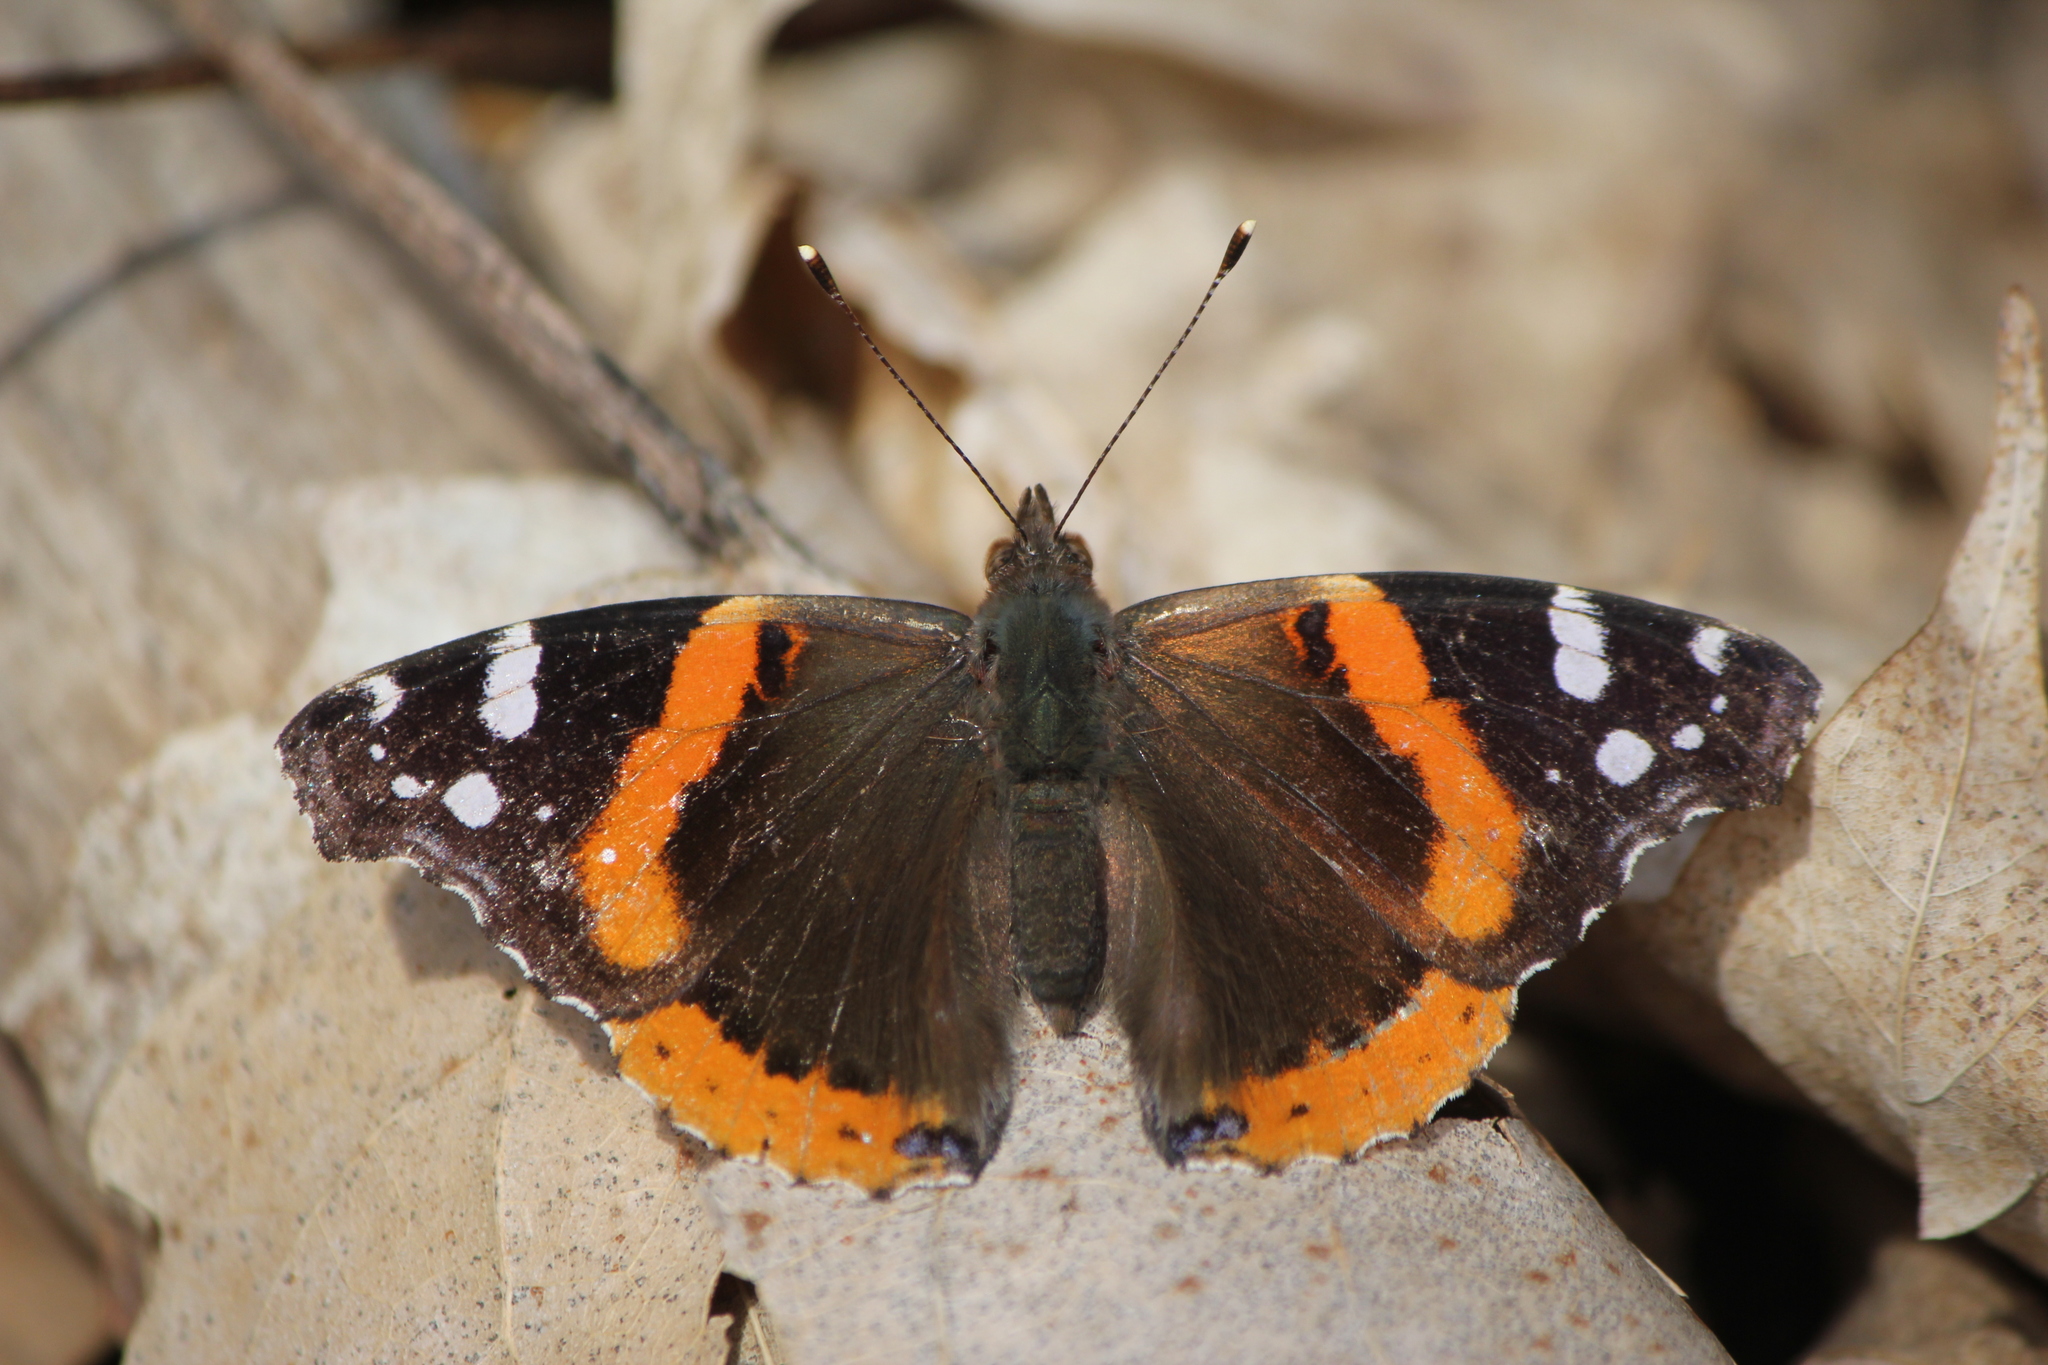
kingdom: Animalia
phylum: Arthropoda
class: Insecta
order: Lepidoptera
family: Nymphalidae
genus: Vanessa
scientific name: Vanessa atalanta
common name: Red admiral
